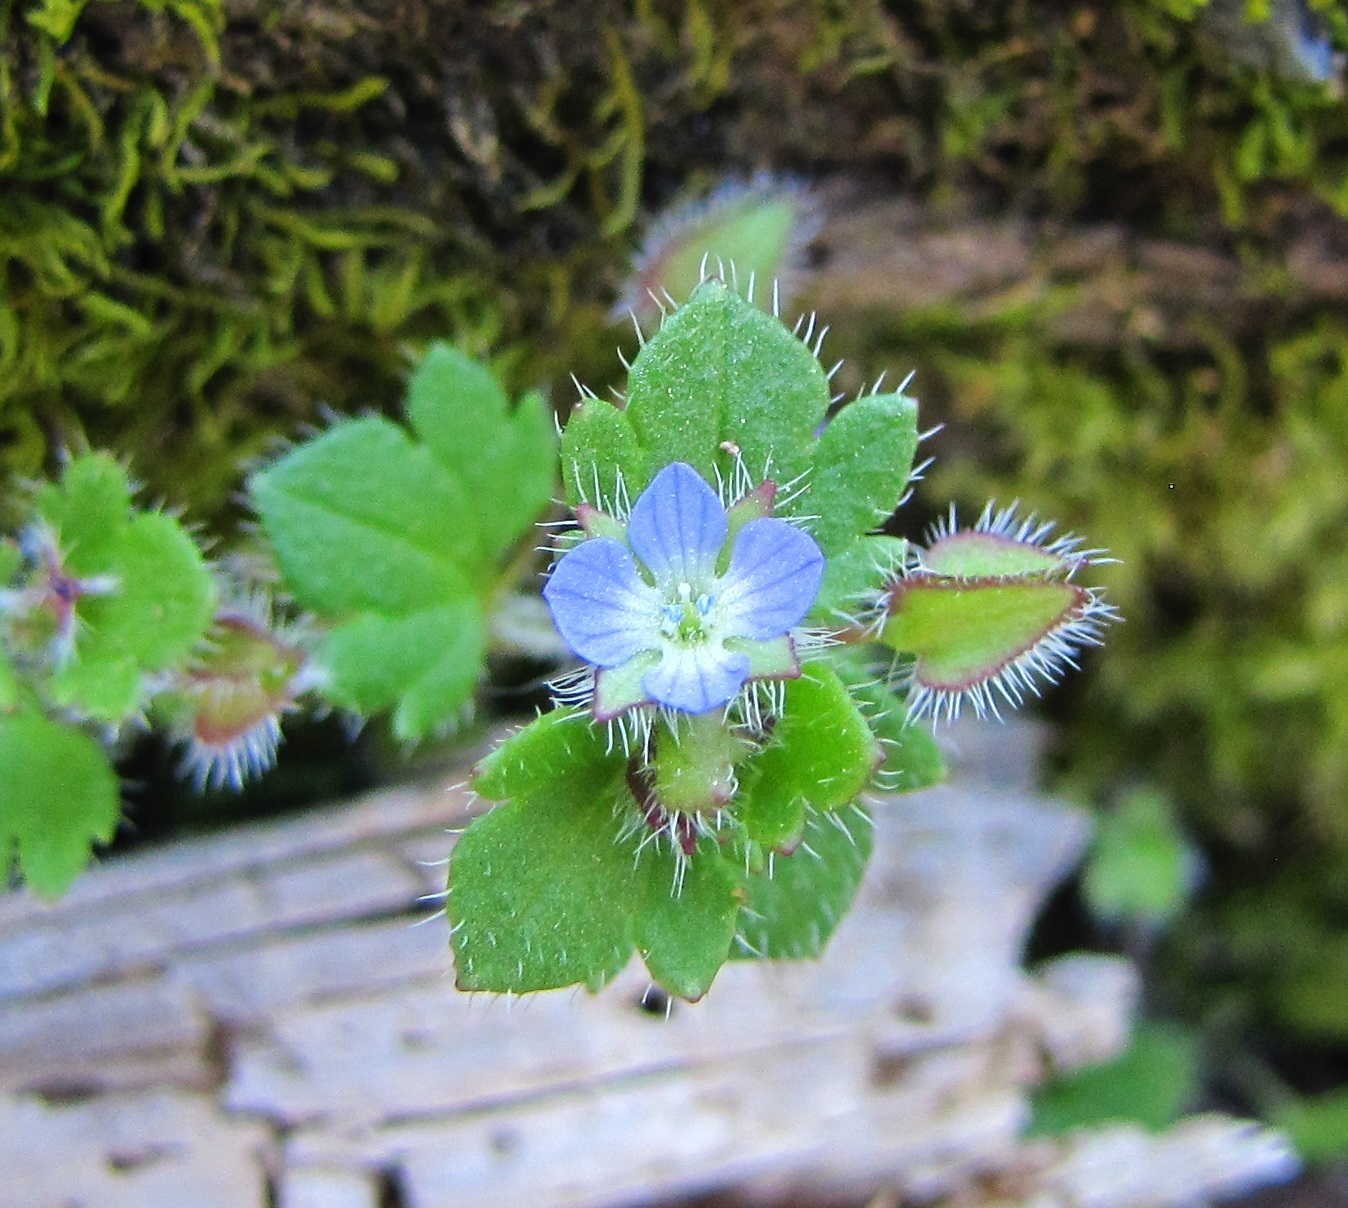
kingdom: Plantae
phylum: Tracheophyta
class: Magnoliopsida
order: Lamiales
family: Plantaginaceae
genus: Veronica
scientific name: Veronica hederifolia
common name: Ivy-leaved speedwell
